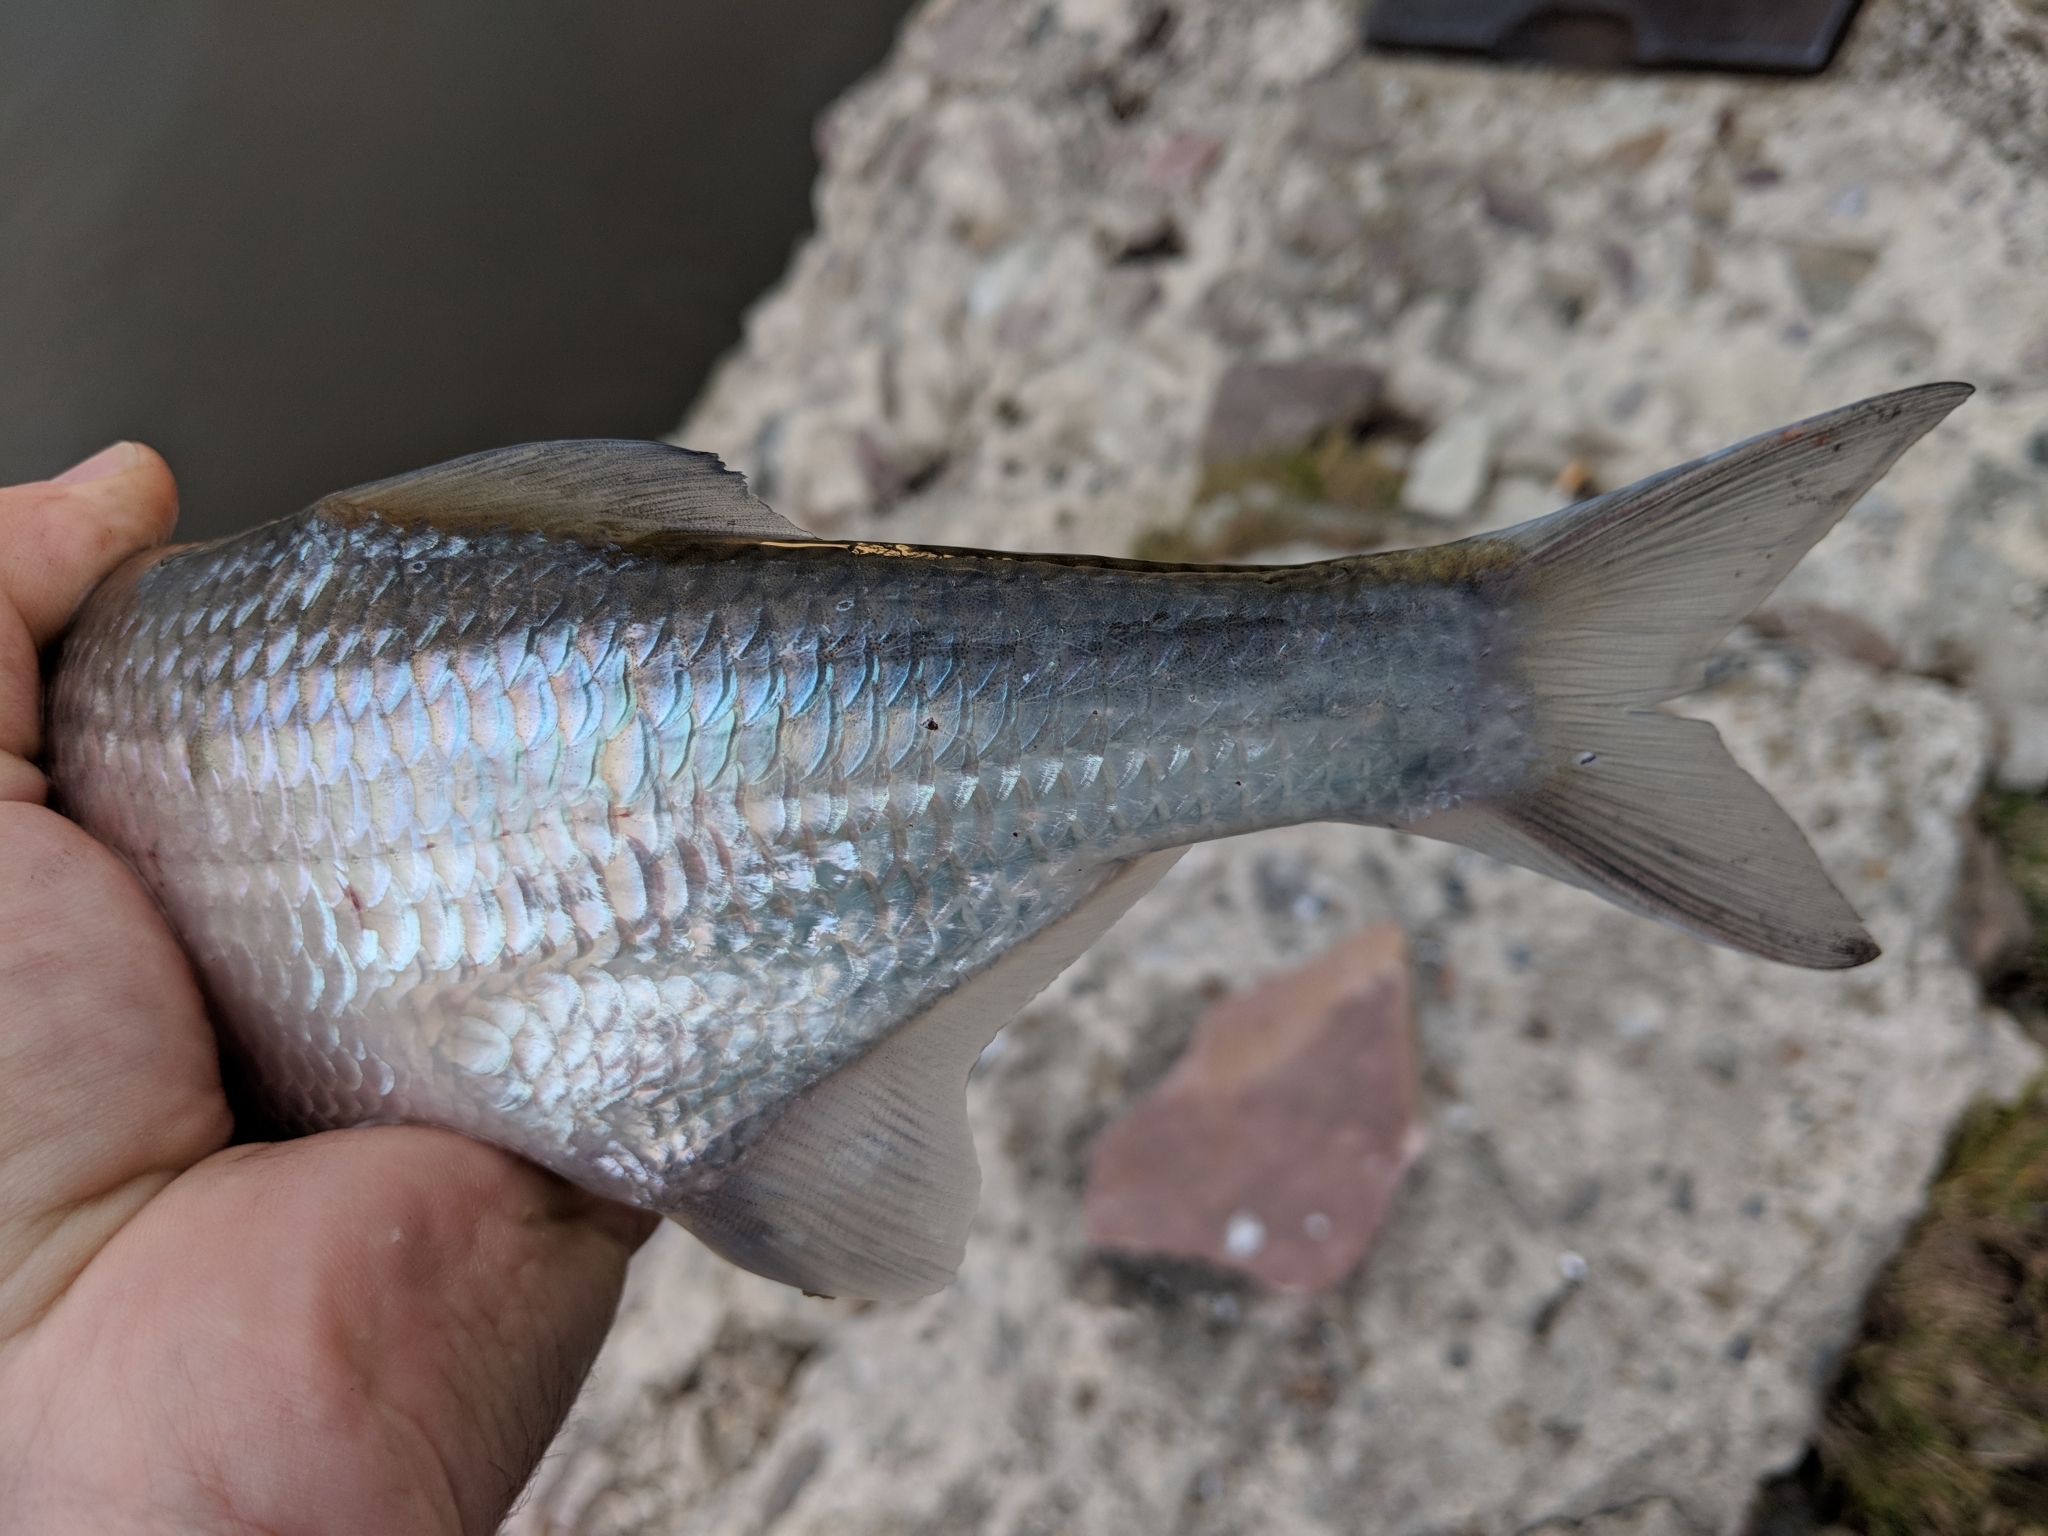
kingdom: Animalia
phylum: Chordata
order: Osteoglossiformes
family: Hiodontidae
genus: Hiodon
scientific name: Hiodon tergisus
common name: Mooneye
